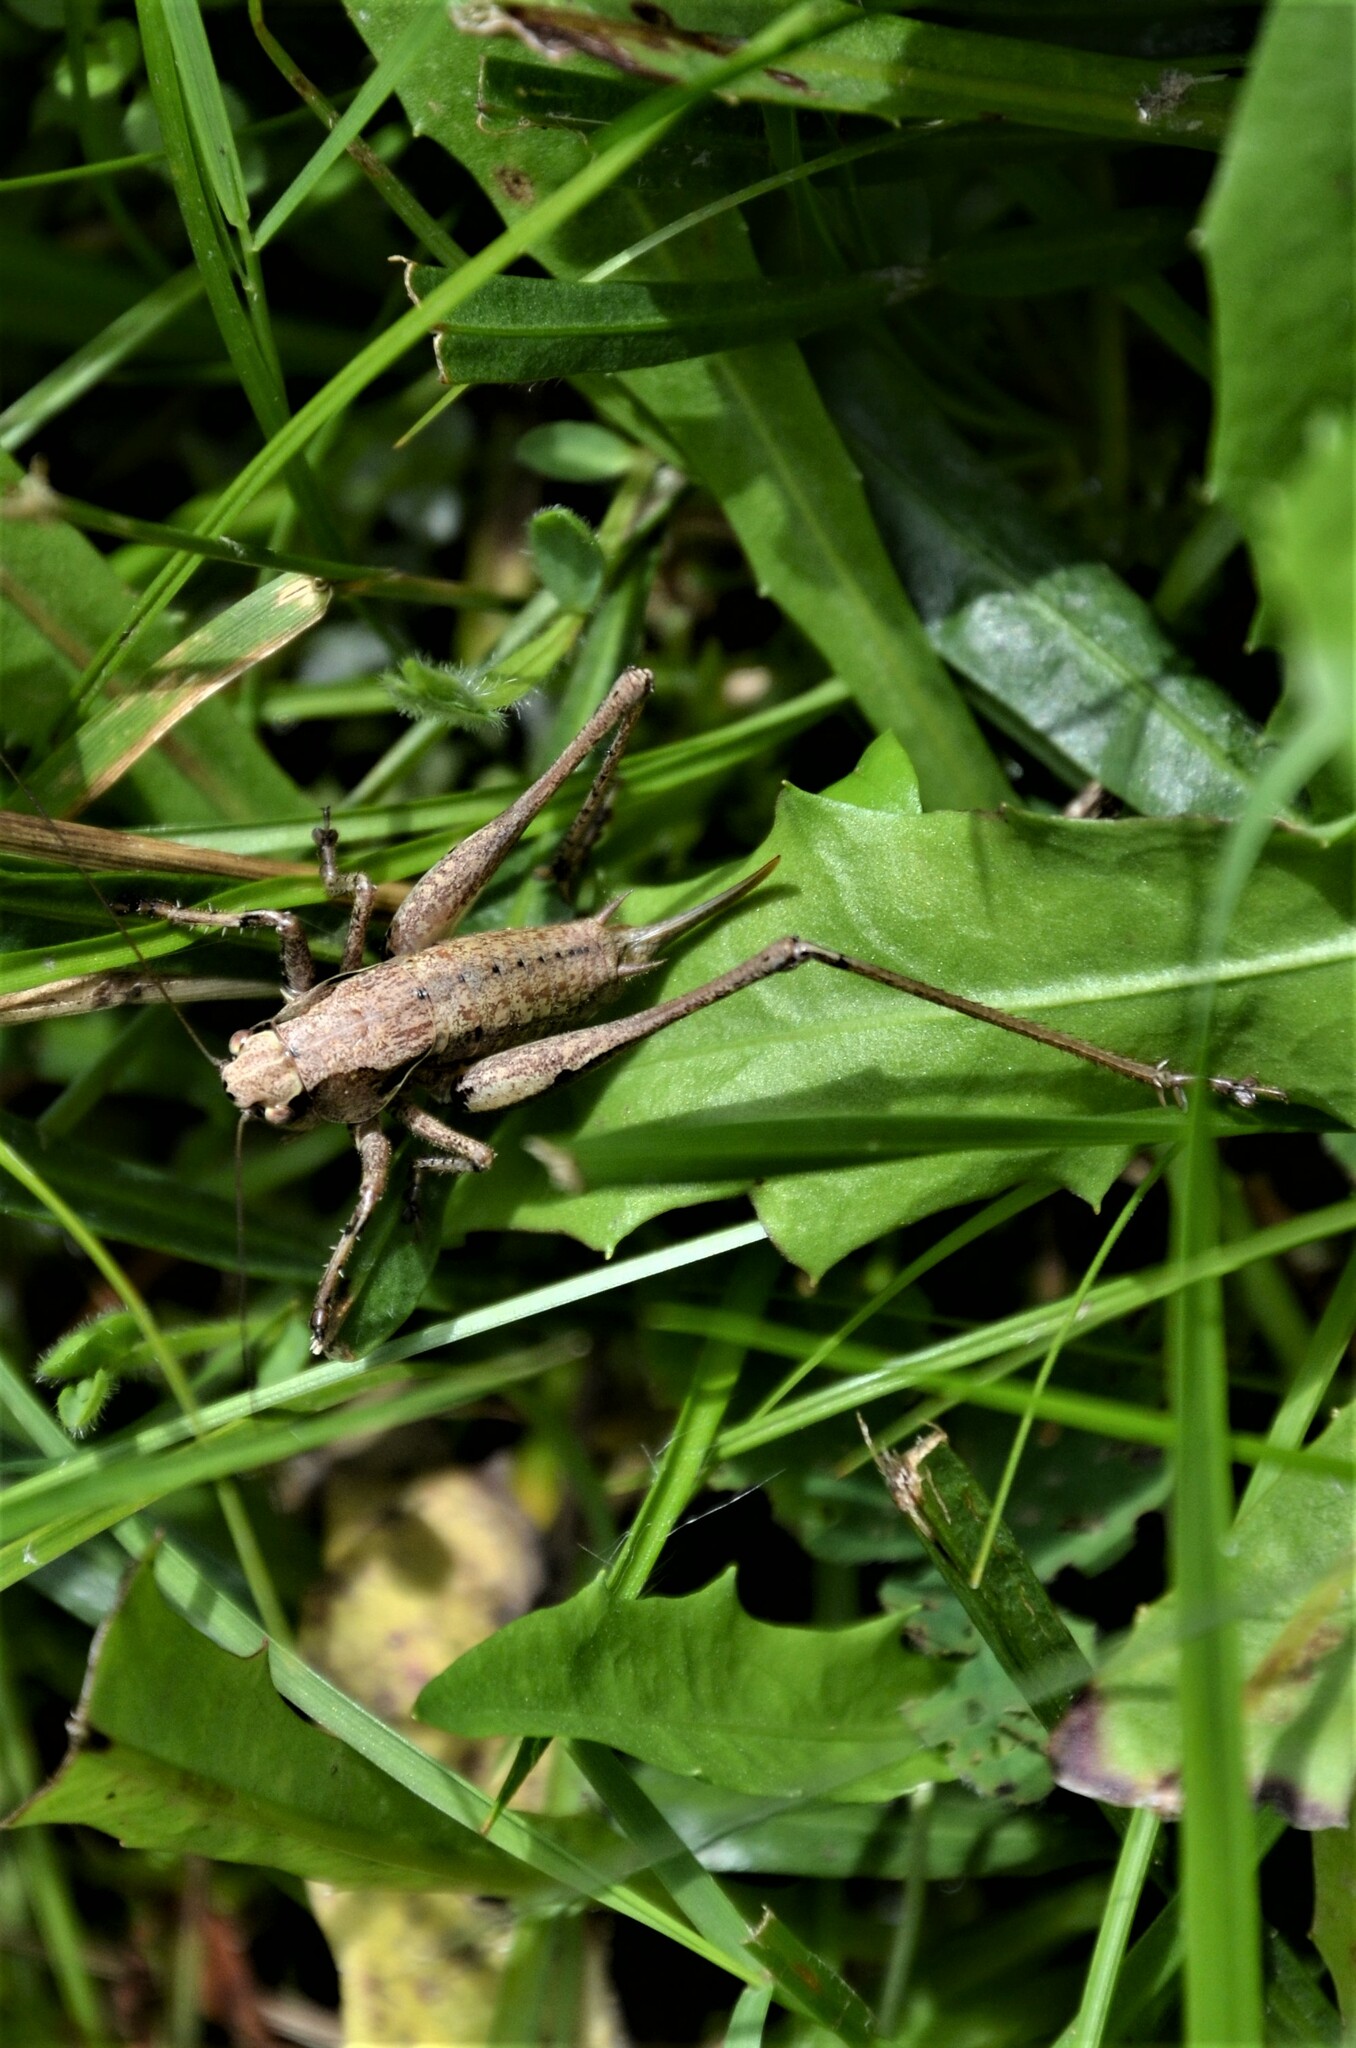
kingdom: Animalia
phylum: Arthropoda
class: Insecta
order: Orthoptera
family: Tettigoniidae
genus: Pholidoptera
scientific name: Pholidoptera griseoaptera
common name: Dark bush-cricket
